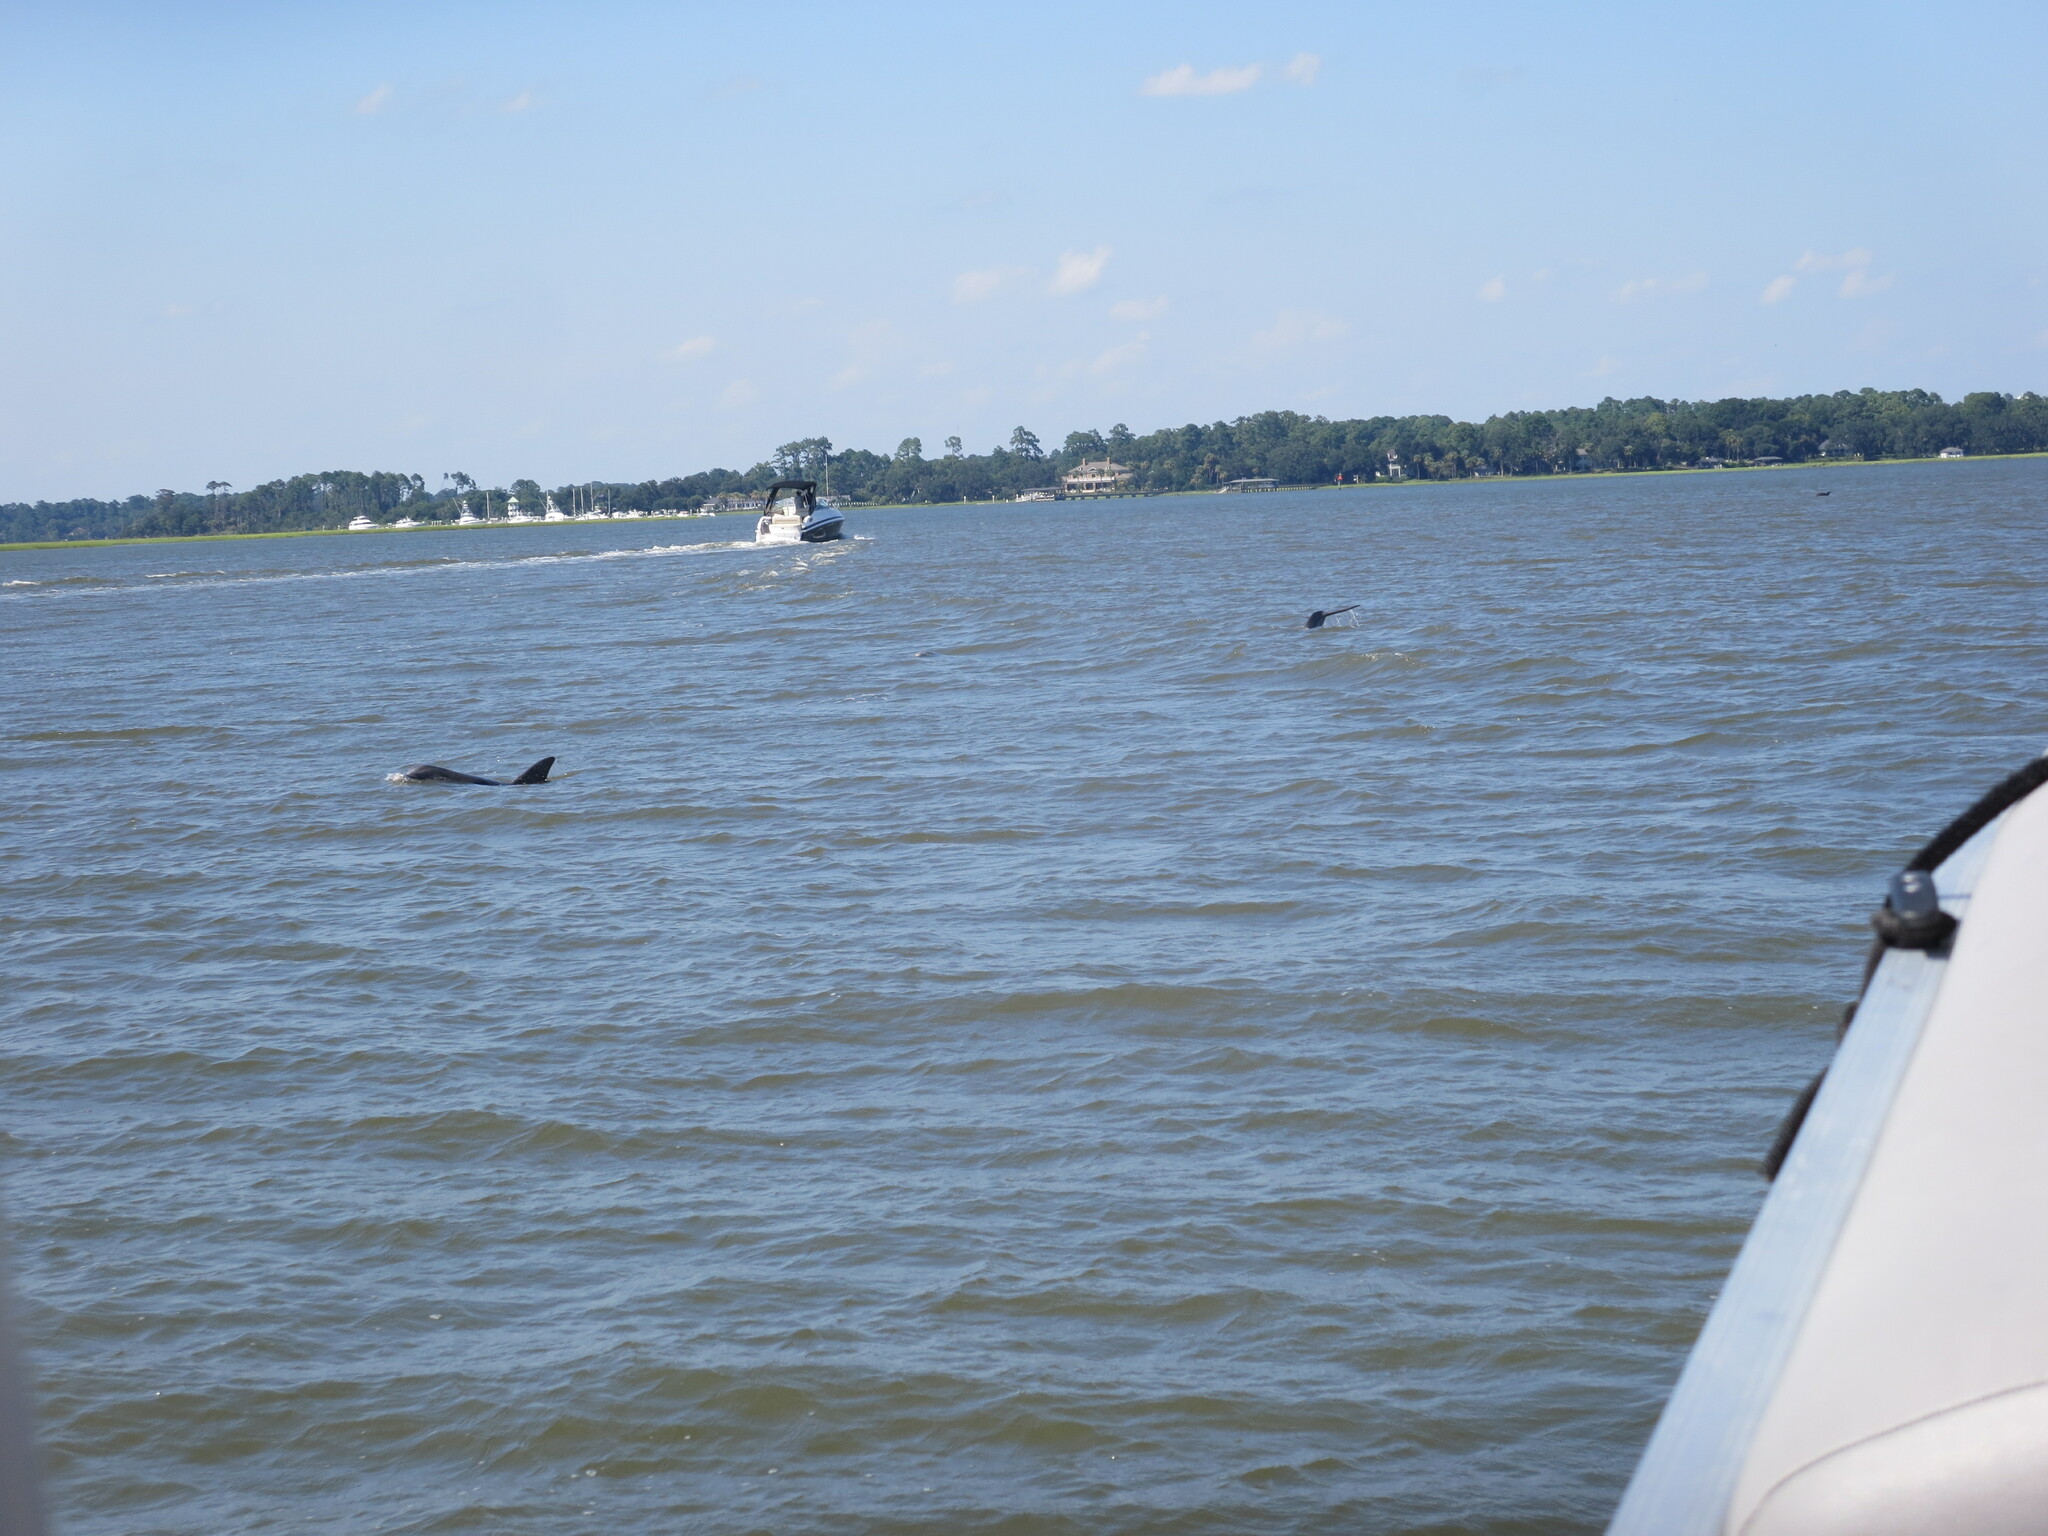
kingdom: Animalia
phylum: Chordata
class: Mammalia
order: Cetacea
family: Delphinidae
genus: Tursiops
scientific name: Tursiops truncatus
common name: Bottlenose dolphin
